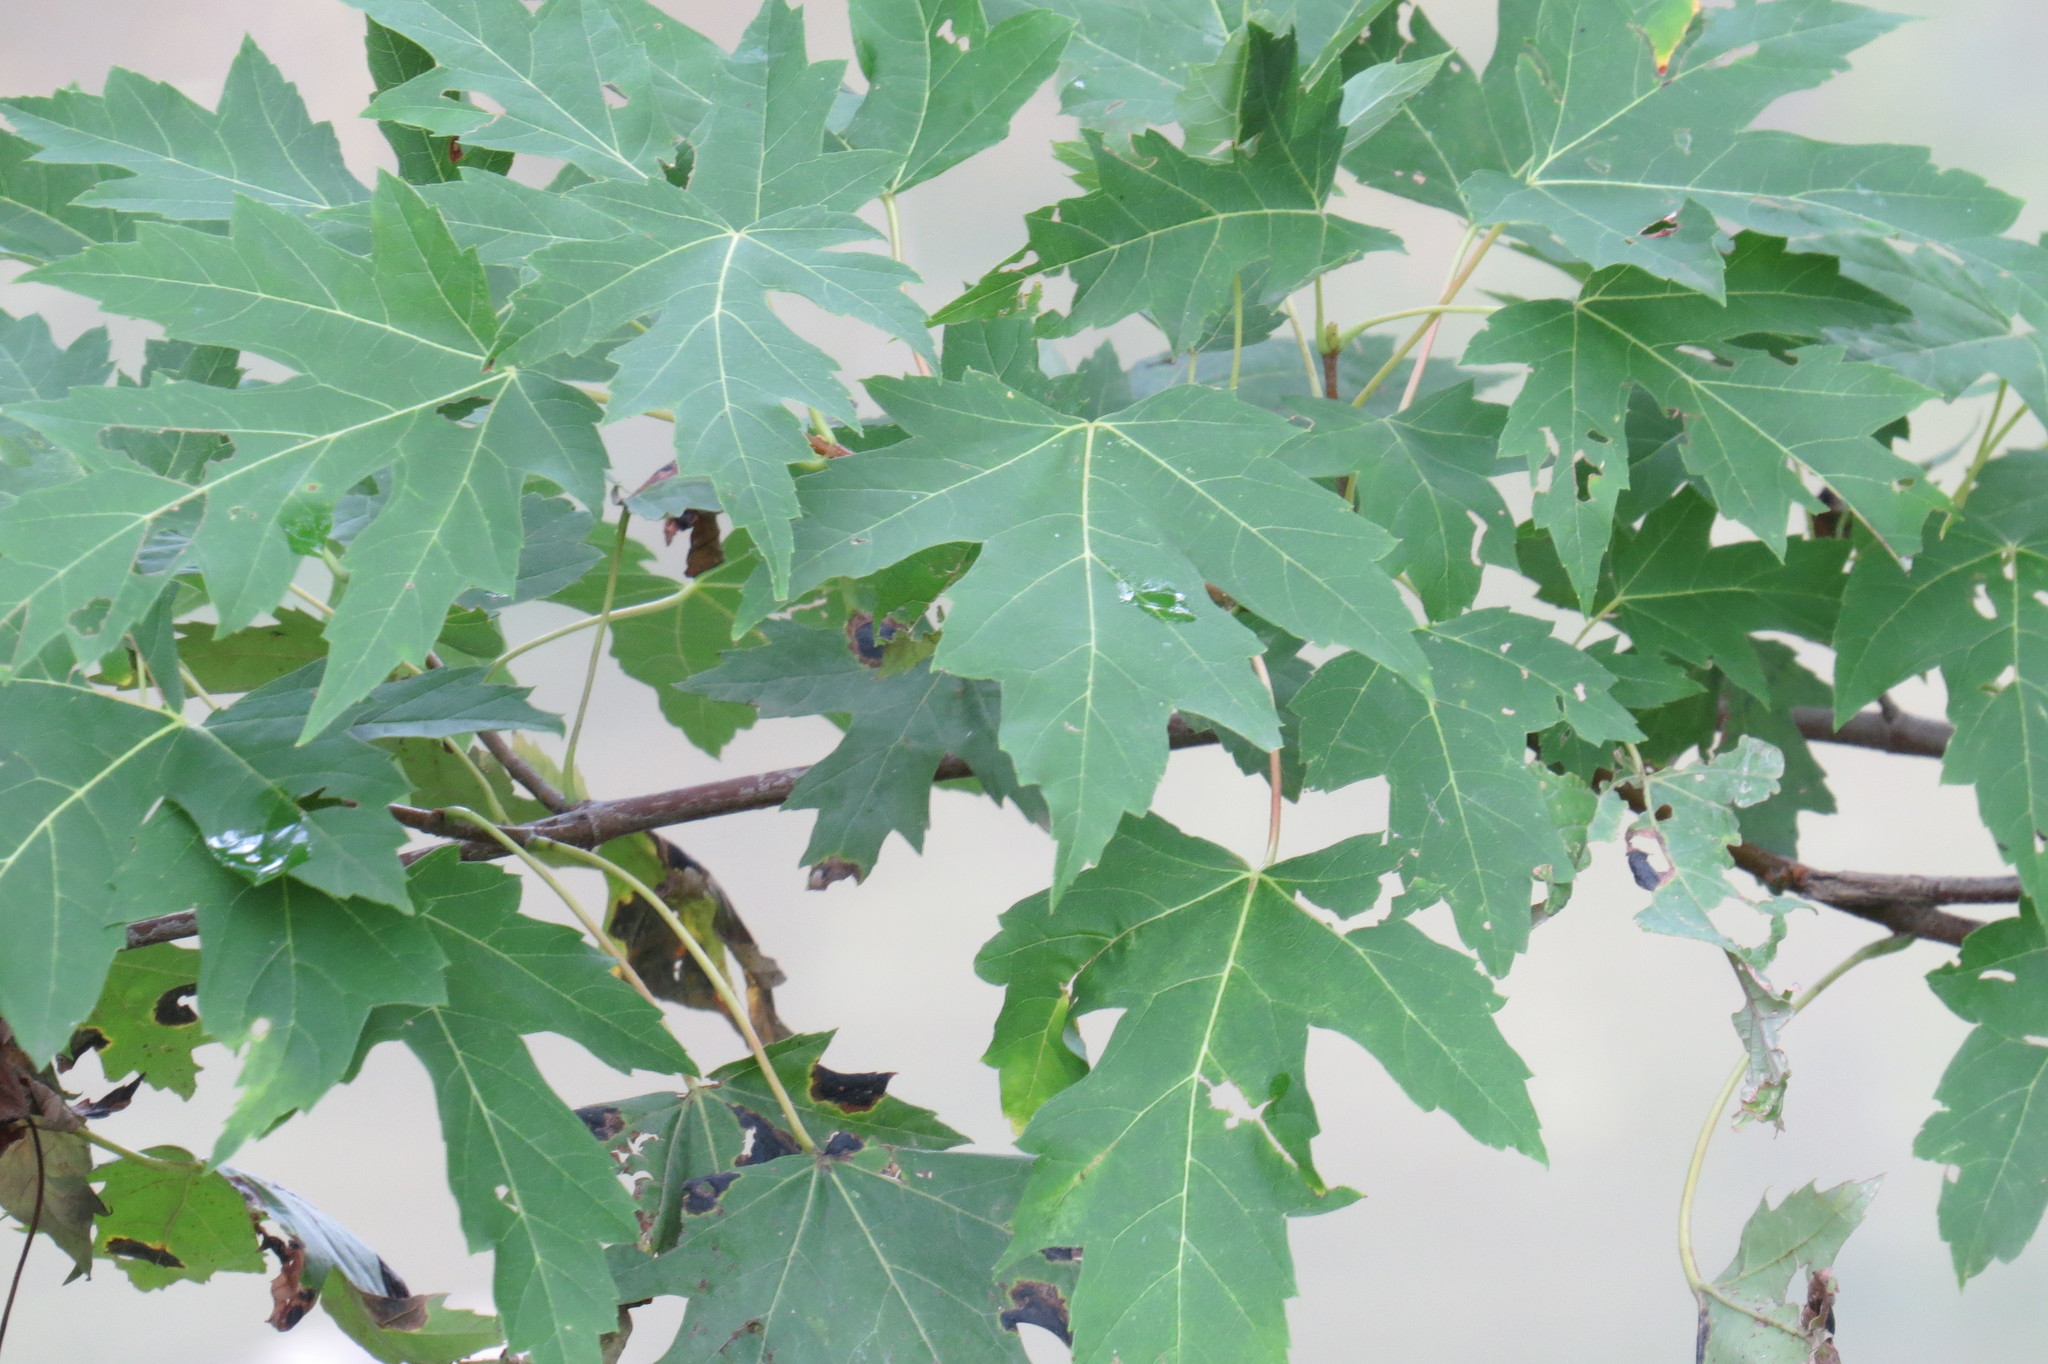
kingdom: Plantae
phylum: Tracheophyta
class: Magnoliopsida
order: Sapindales
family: Sapindaceae
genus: Acer
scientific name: Acer saccharinum
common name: Silver maple
